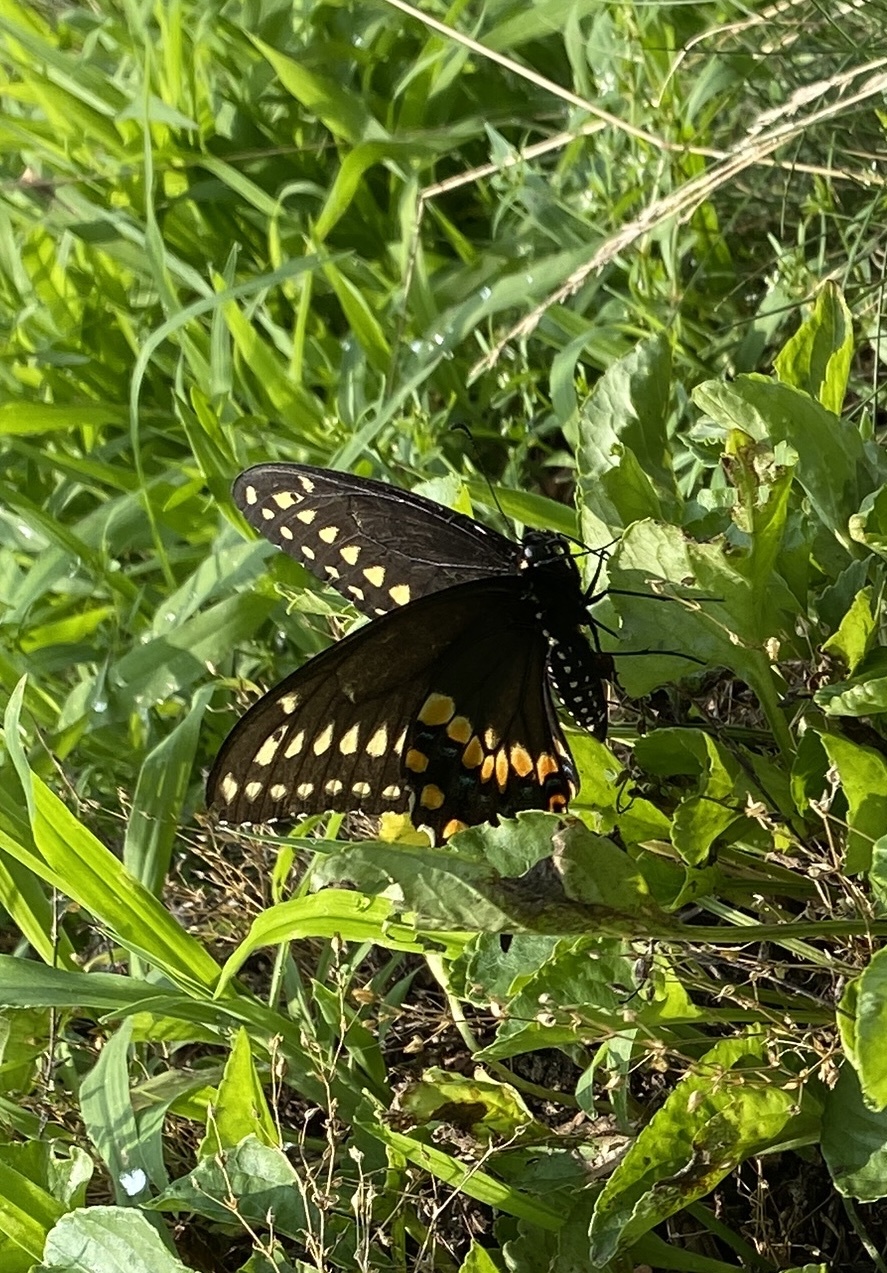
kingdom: Animalia
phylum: Arthropoda
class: Insecta
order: Lepidoptera
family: Papilionidae
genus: Papilio
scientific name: Papilio polyxenes
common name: Black swallowtail
